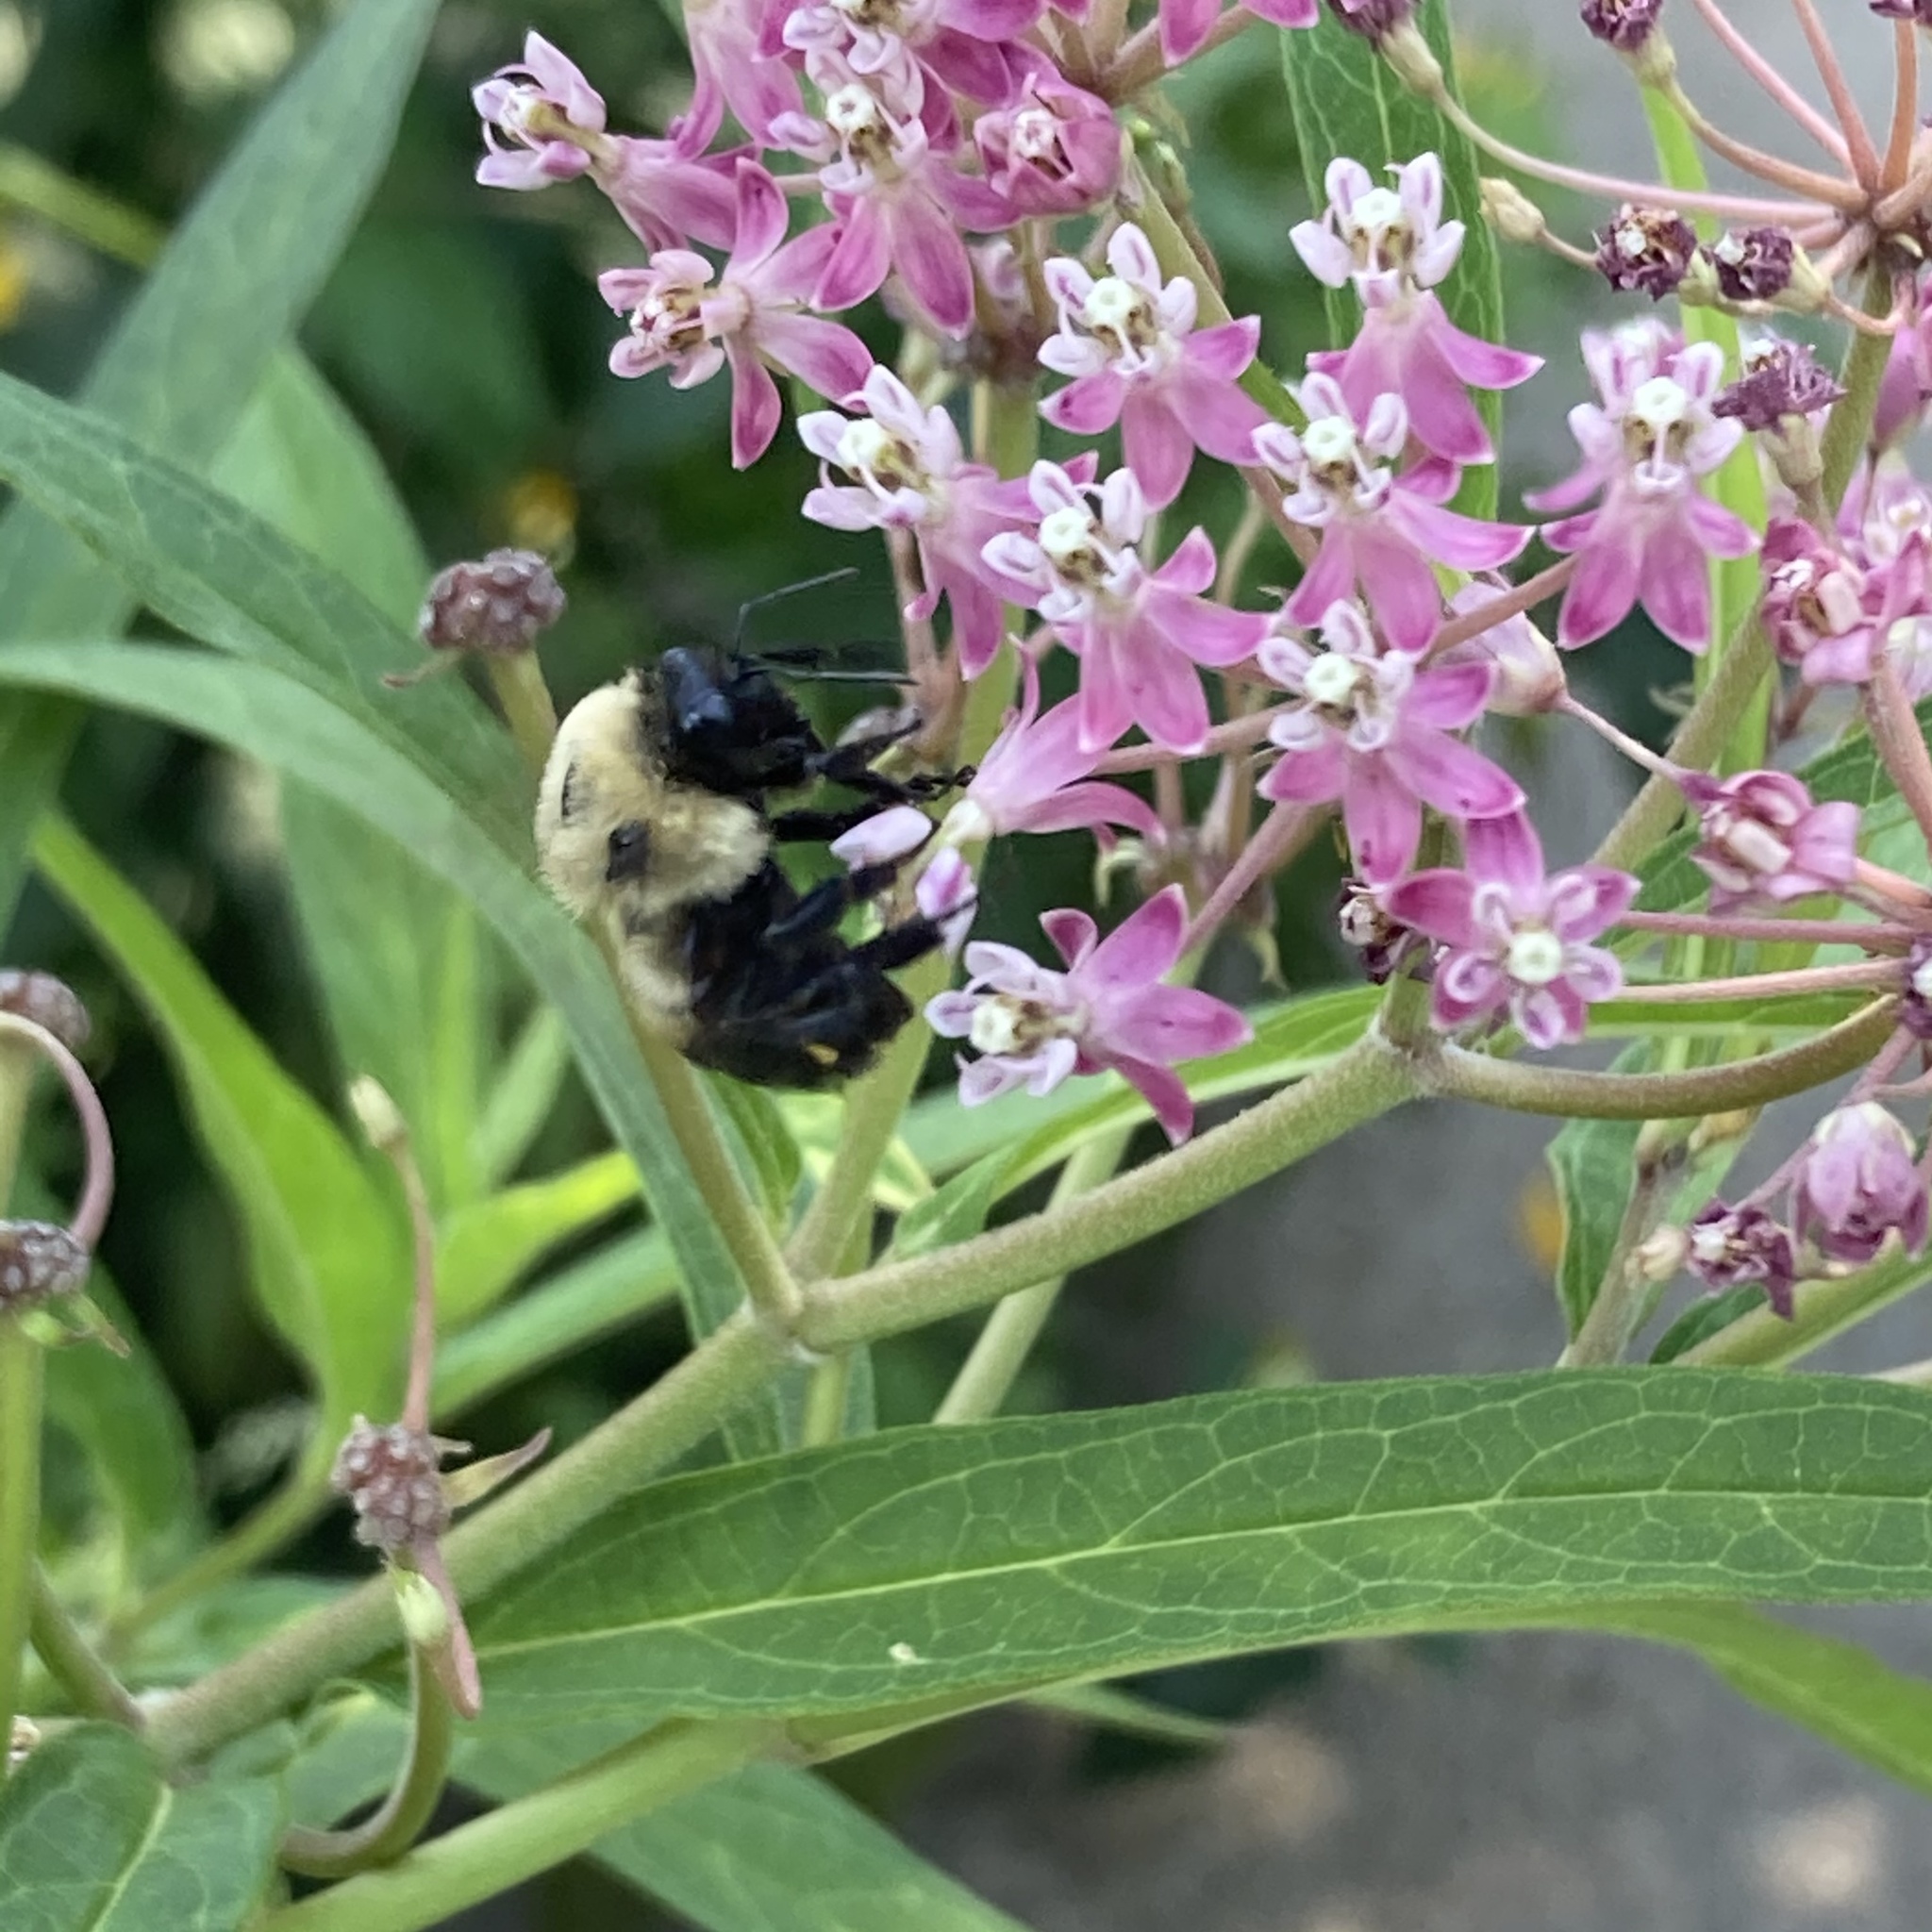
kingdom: Animalia
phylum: Arthropoda
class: Insecta
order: Hymenoptera
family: Apidae
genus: Bombus
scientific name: Bombus griseocollis
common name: Brown-belted bumble bee
